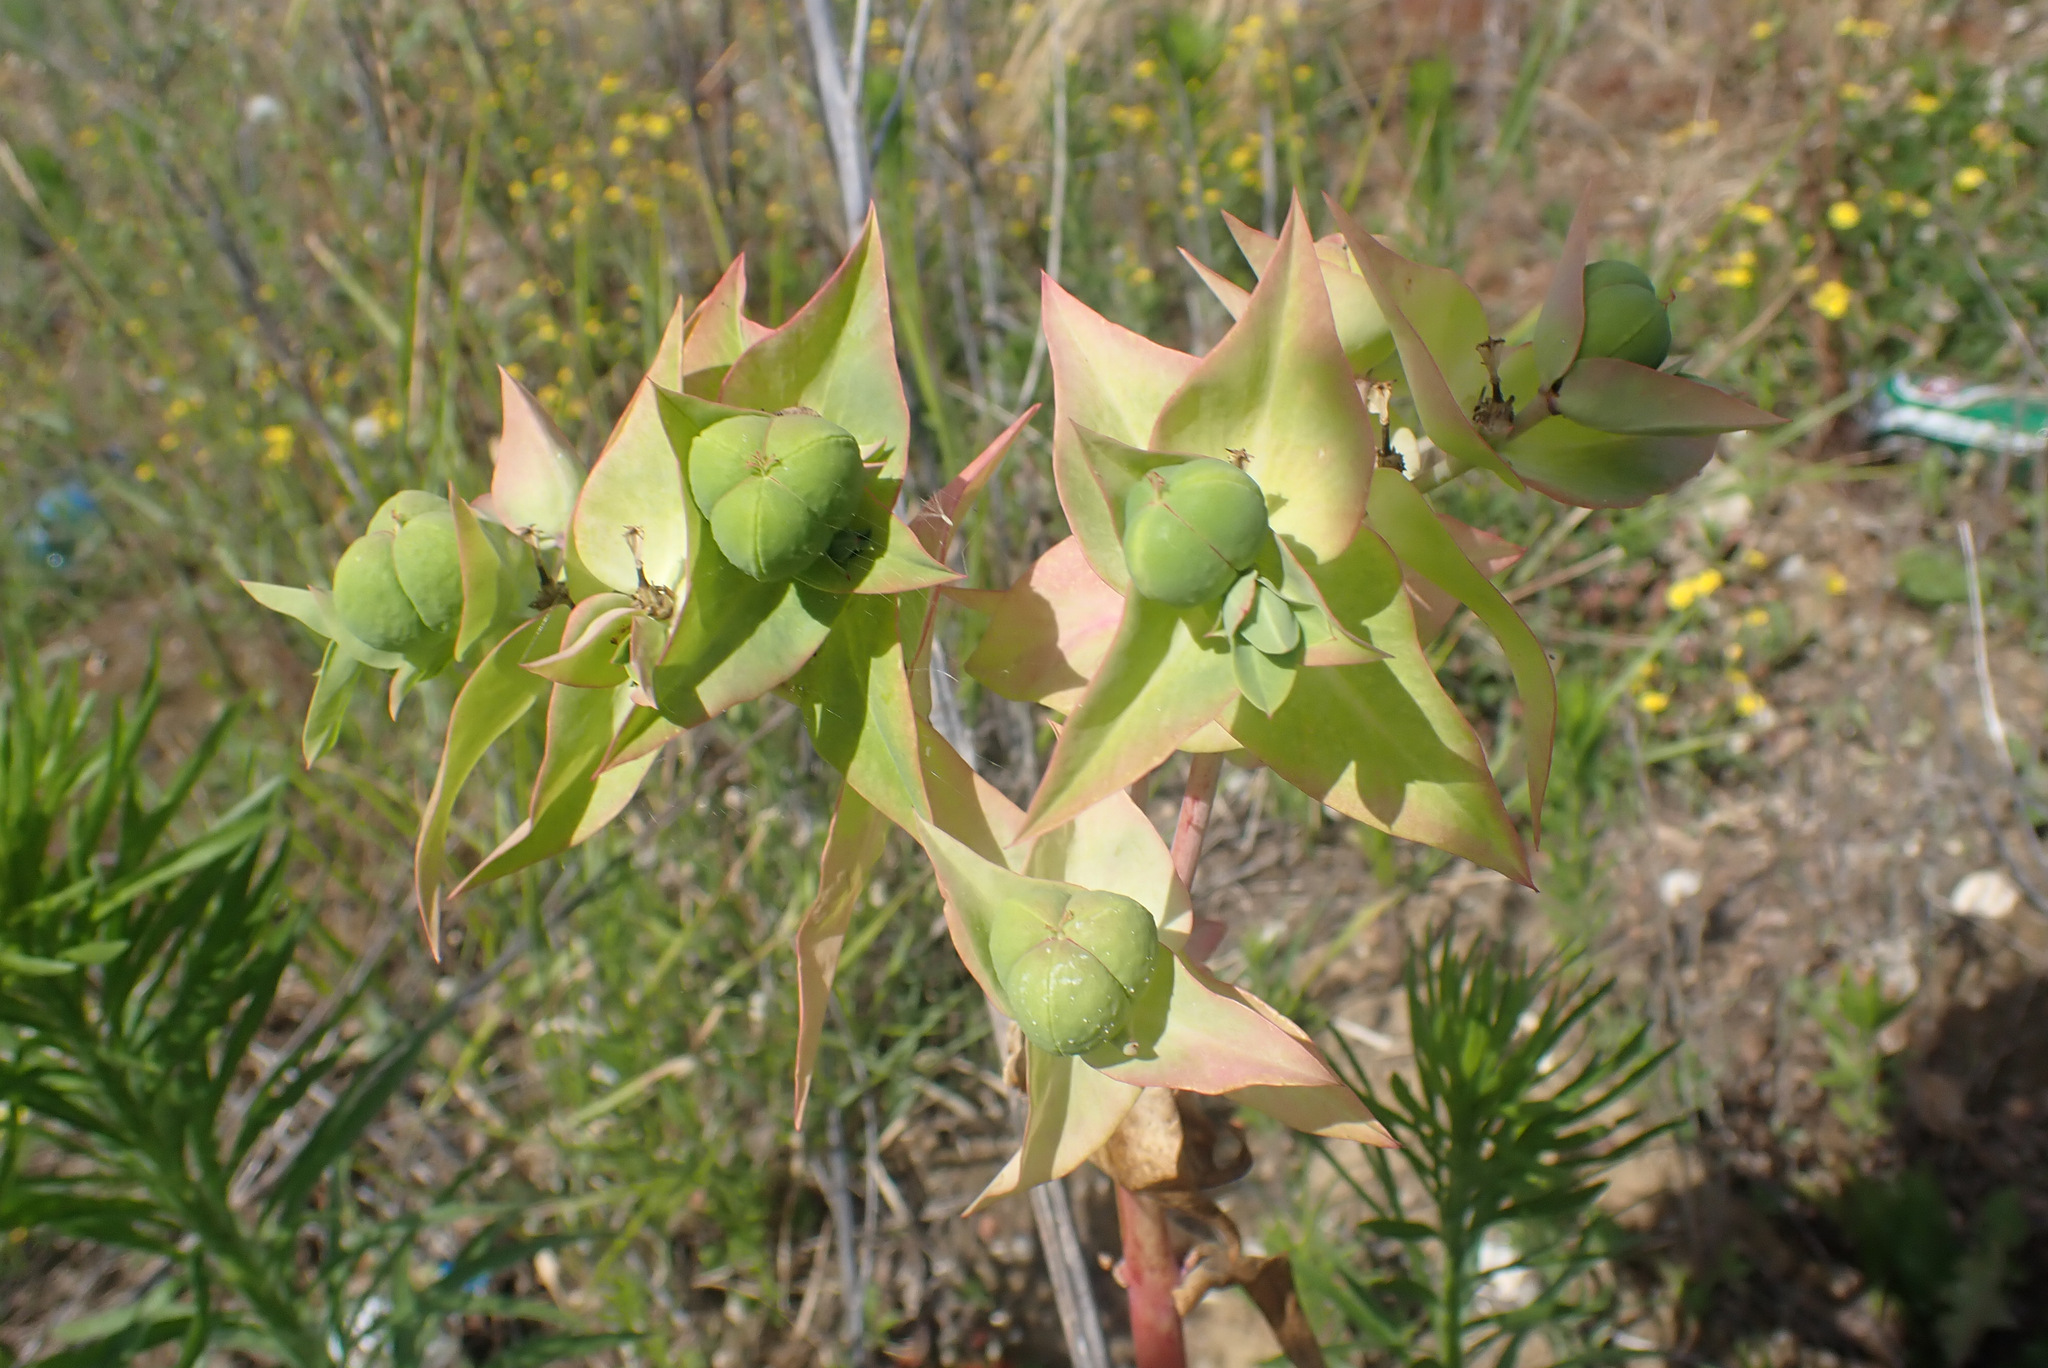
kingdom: Plantae
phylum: Tracheophyta
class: Magnoliopsida
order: Malpighiales
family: Euphorbiaceae
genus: Euphorbia
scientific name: Euphorbia lathyris
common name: Caper spurge
